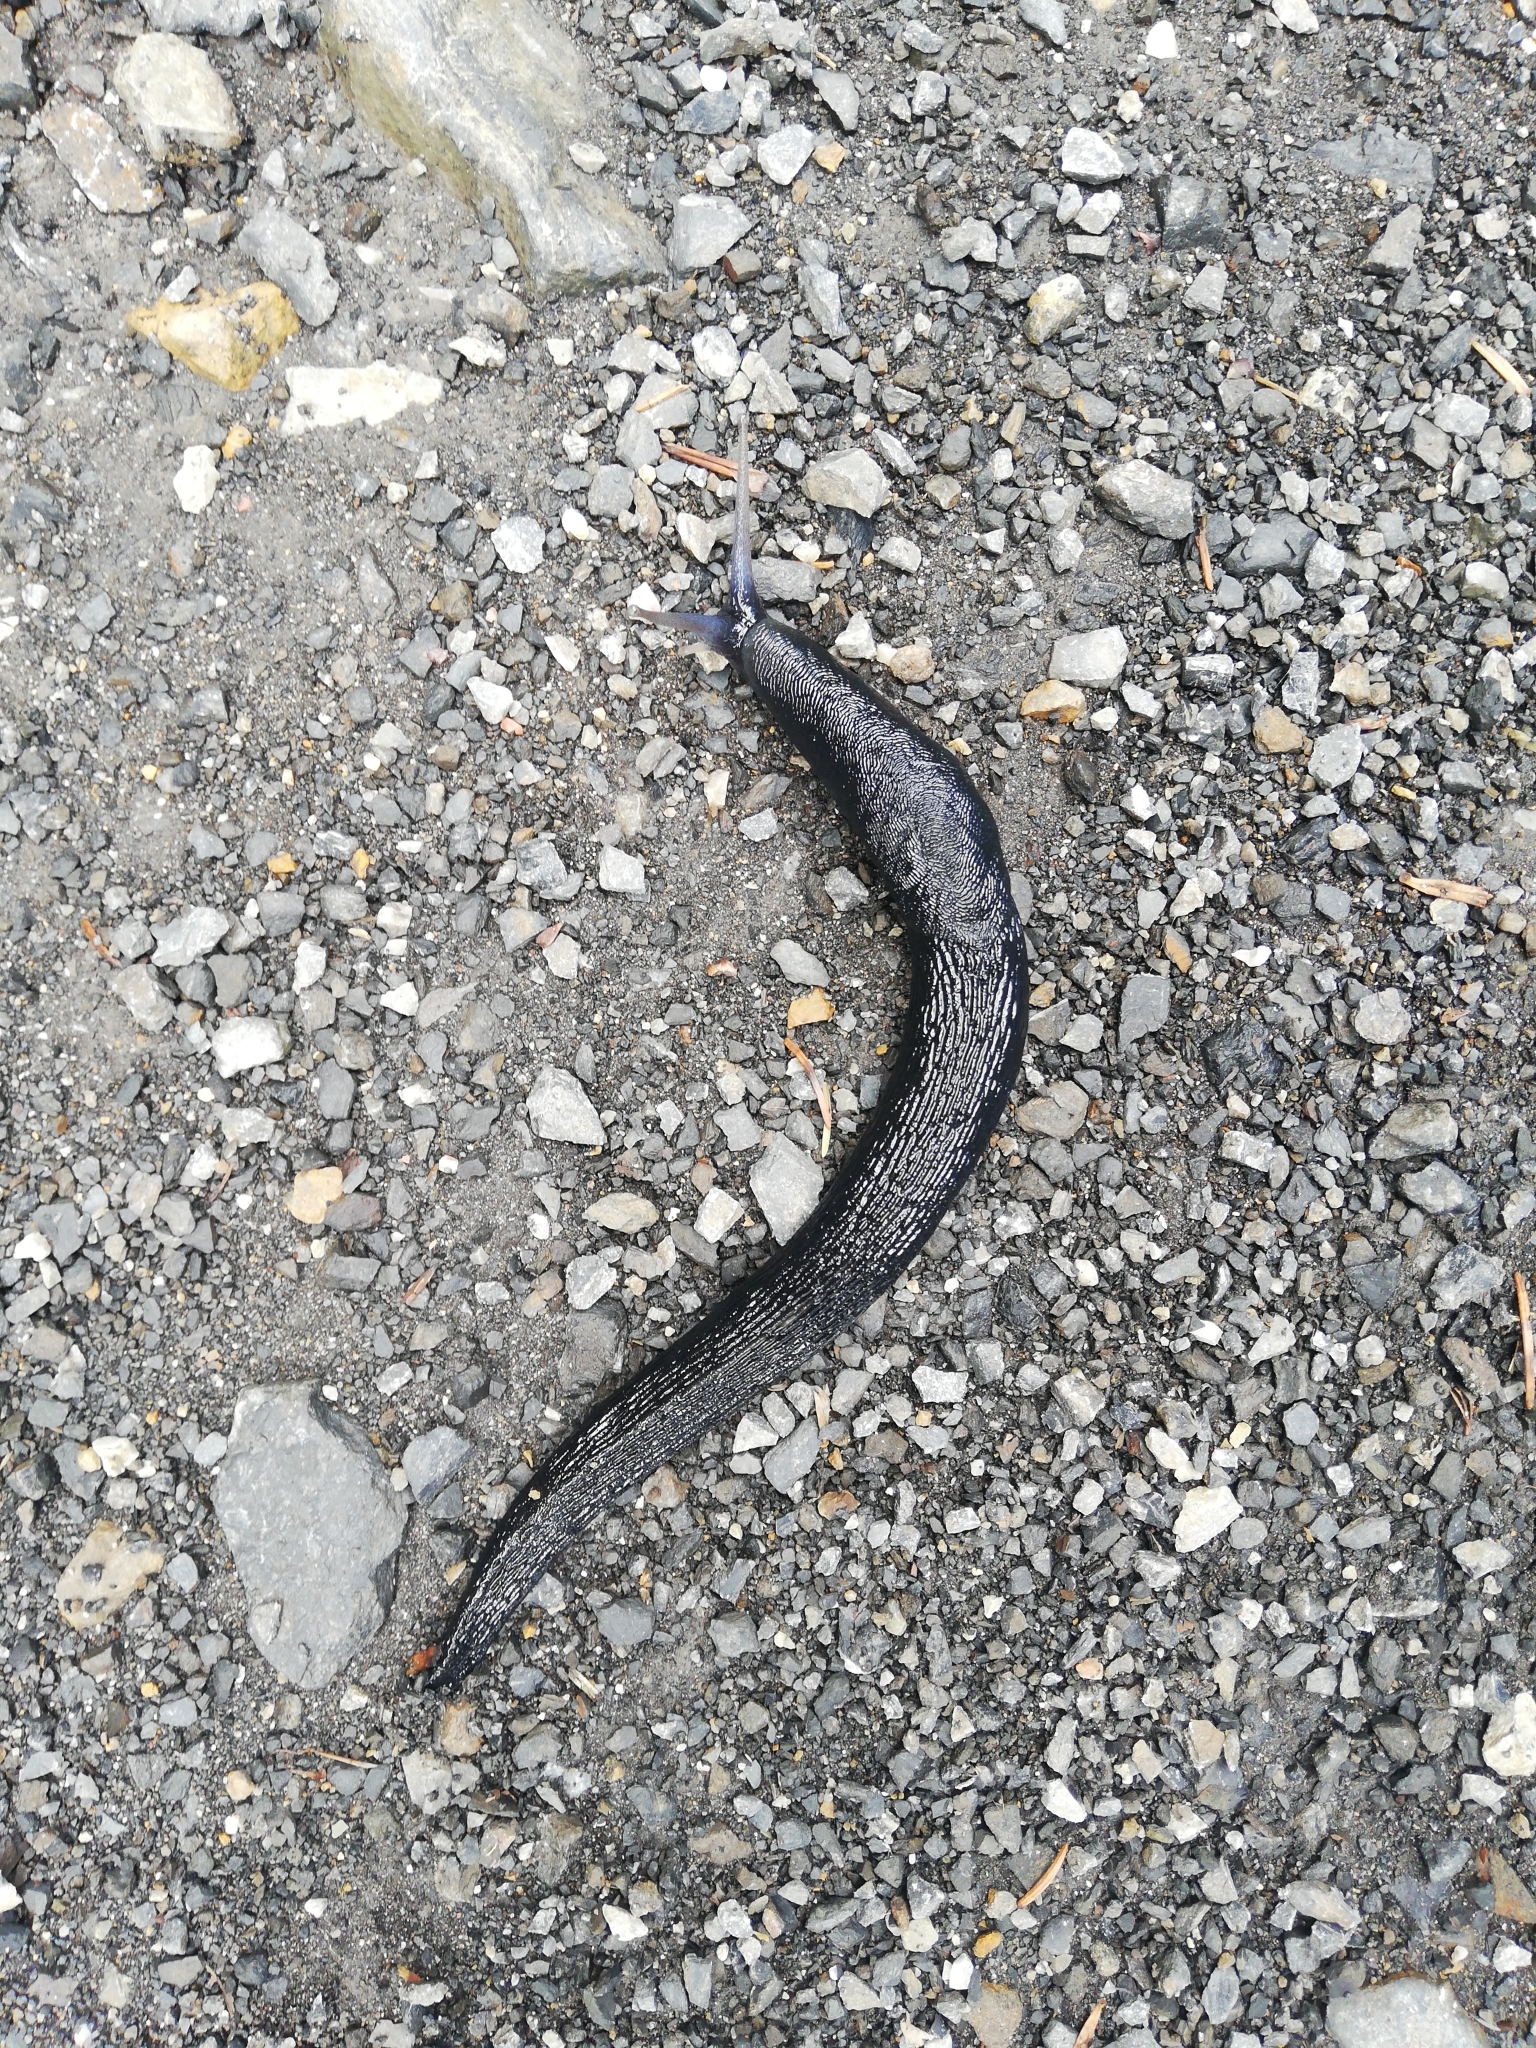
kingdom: Animalia
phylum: Mollusca
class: Gastropoda
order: Stylommatophora
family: Limacidae
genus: Limax
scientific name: Limax cinereoniger
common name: Ash-black slug
